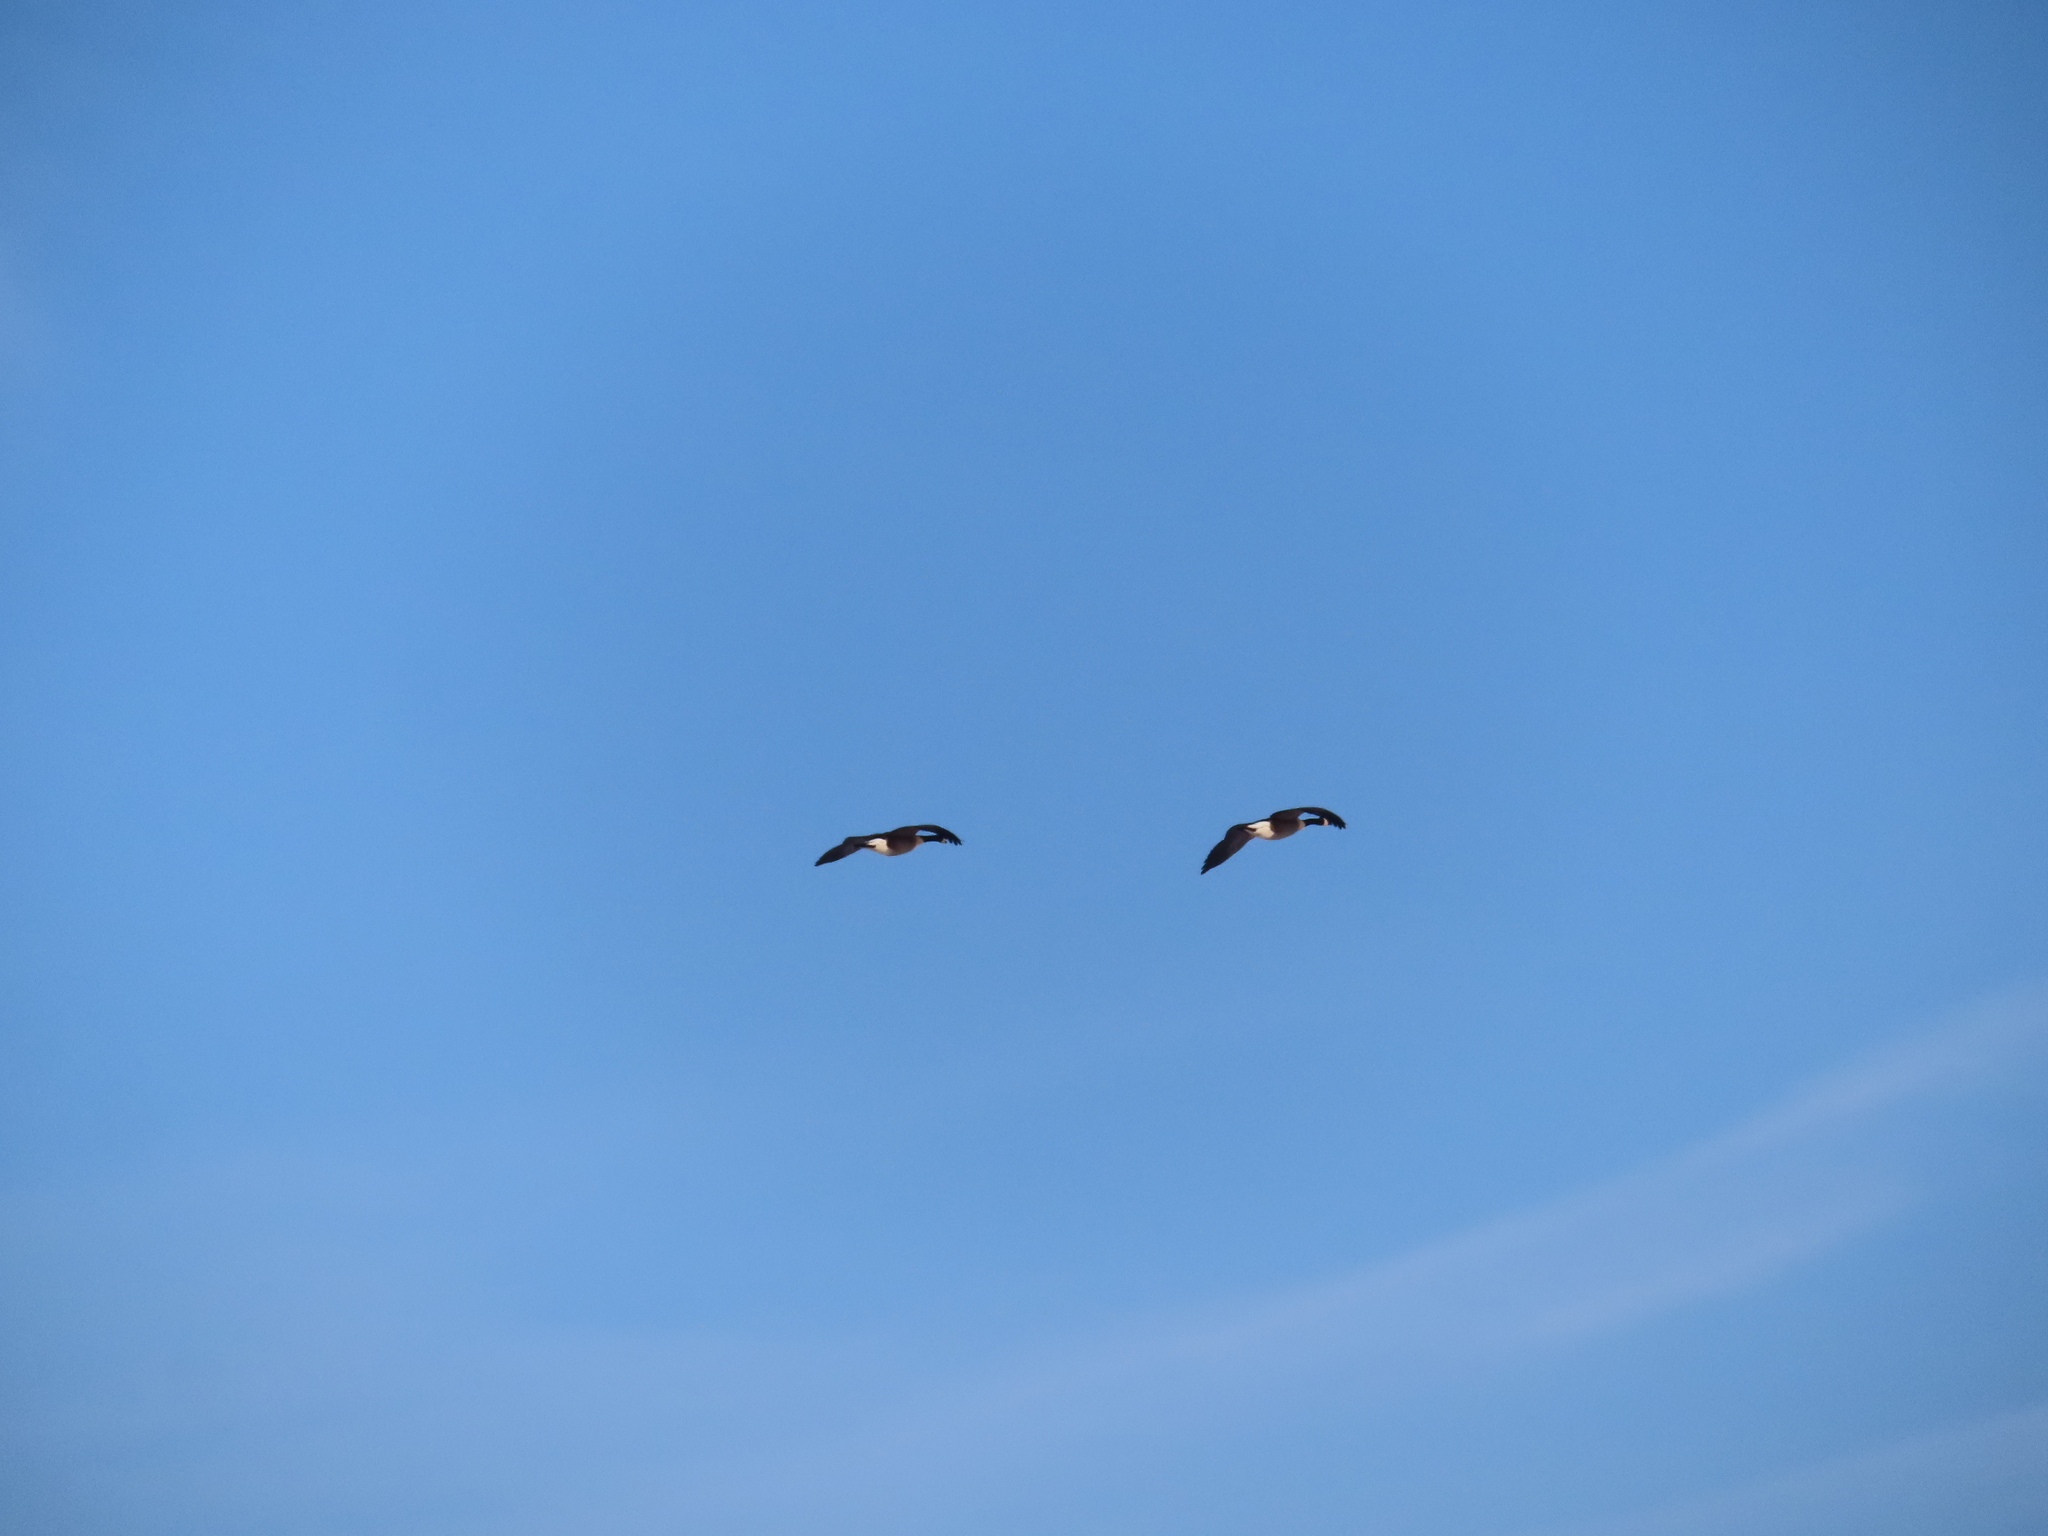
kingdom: Animalia
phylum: Chordata
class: Aves
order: Anseriformes
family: Anatidae
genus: Branta
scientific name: Branta canadensis
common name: Canada goose
